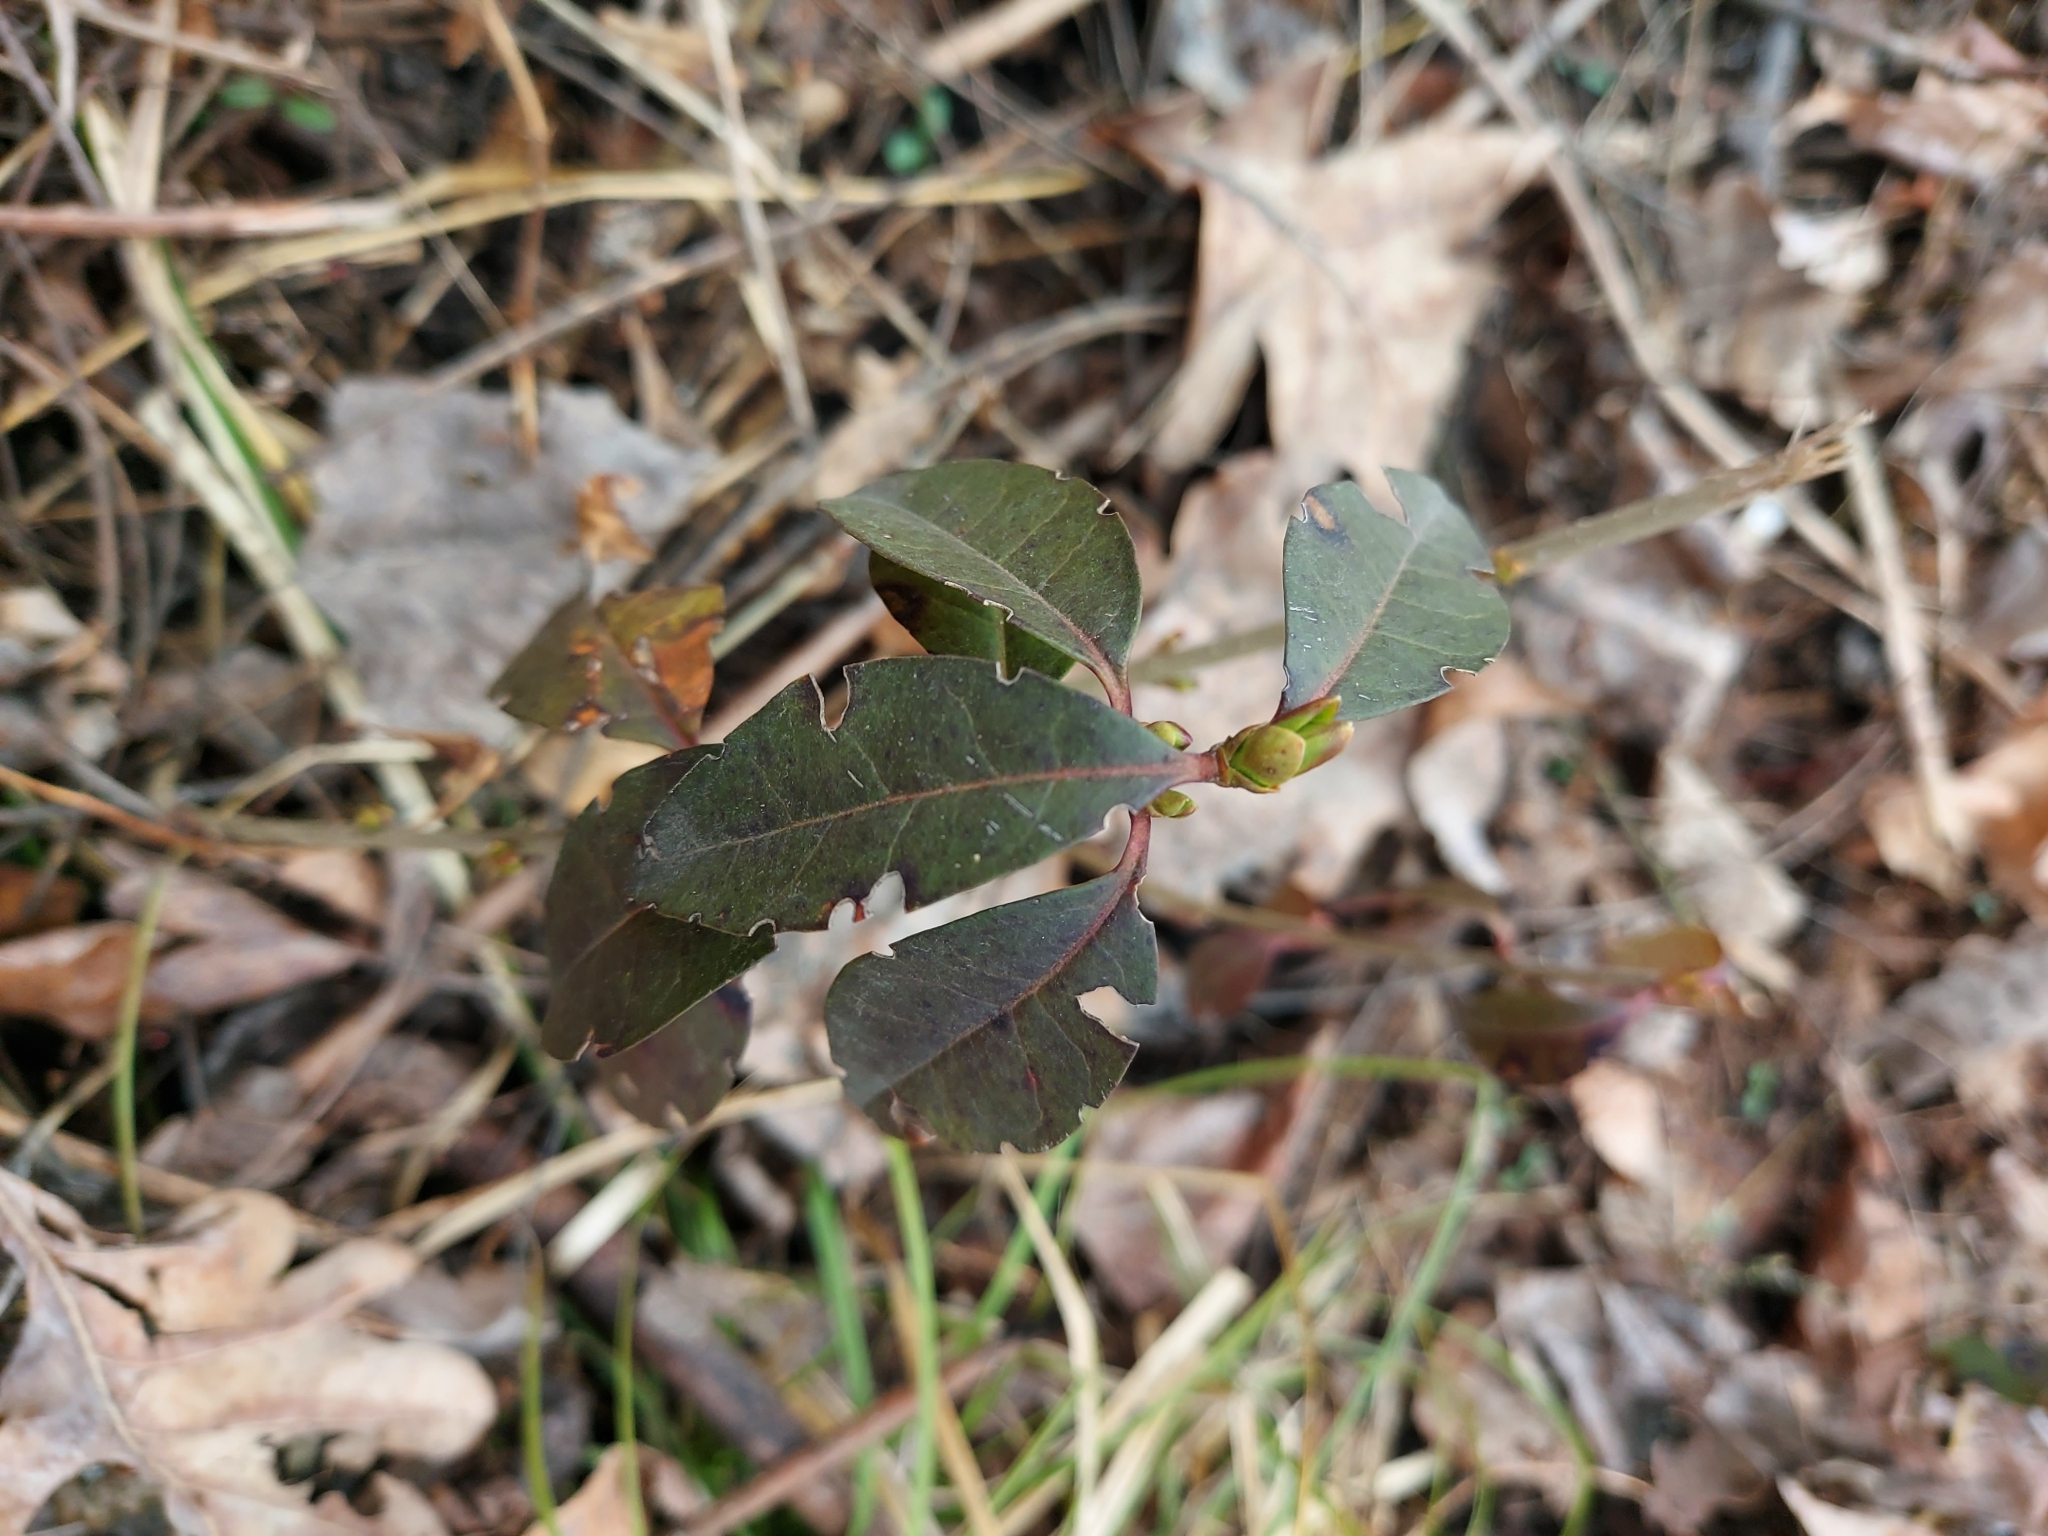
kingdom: Plantae
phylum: Tracheophyta
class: Magnoliopsida
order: Lamiales
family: Oleaceae
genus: Ligustrum
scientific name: Ligustrum vulgare
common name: Wild privet
